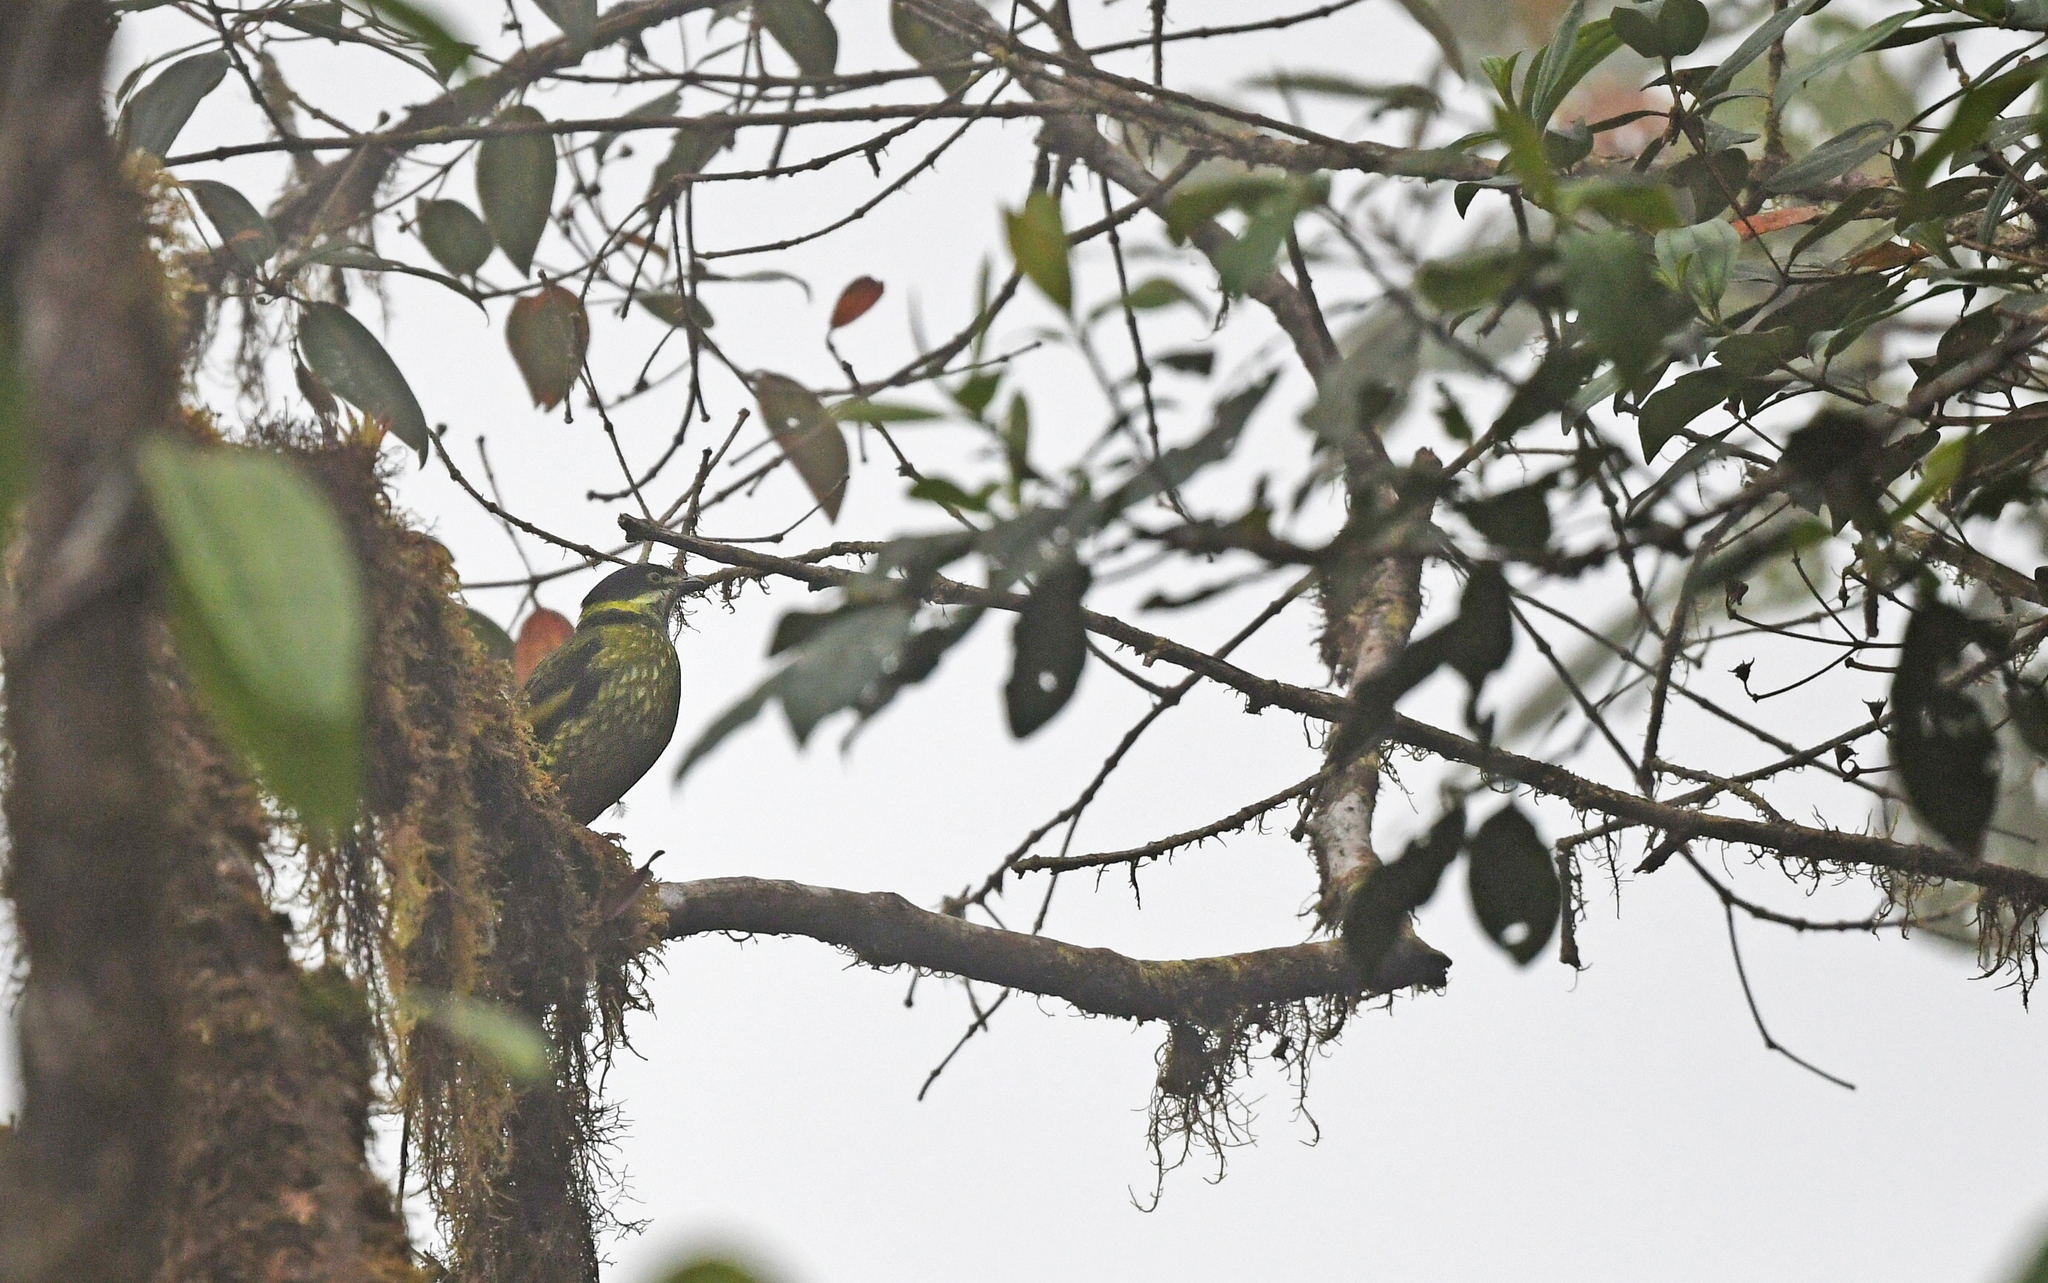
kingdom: Animalia
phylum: Chordata
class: Aves
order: Passeriformes
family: Cotingidae
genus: Ampelioides
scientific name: Ampelioides tschudii
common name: Scaled fruiteater
